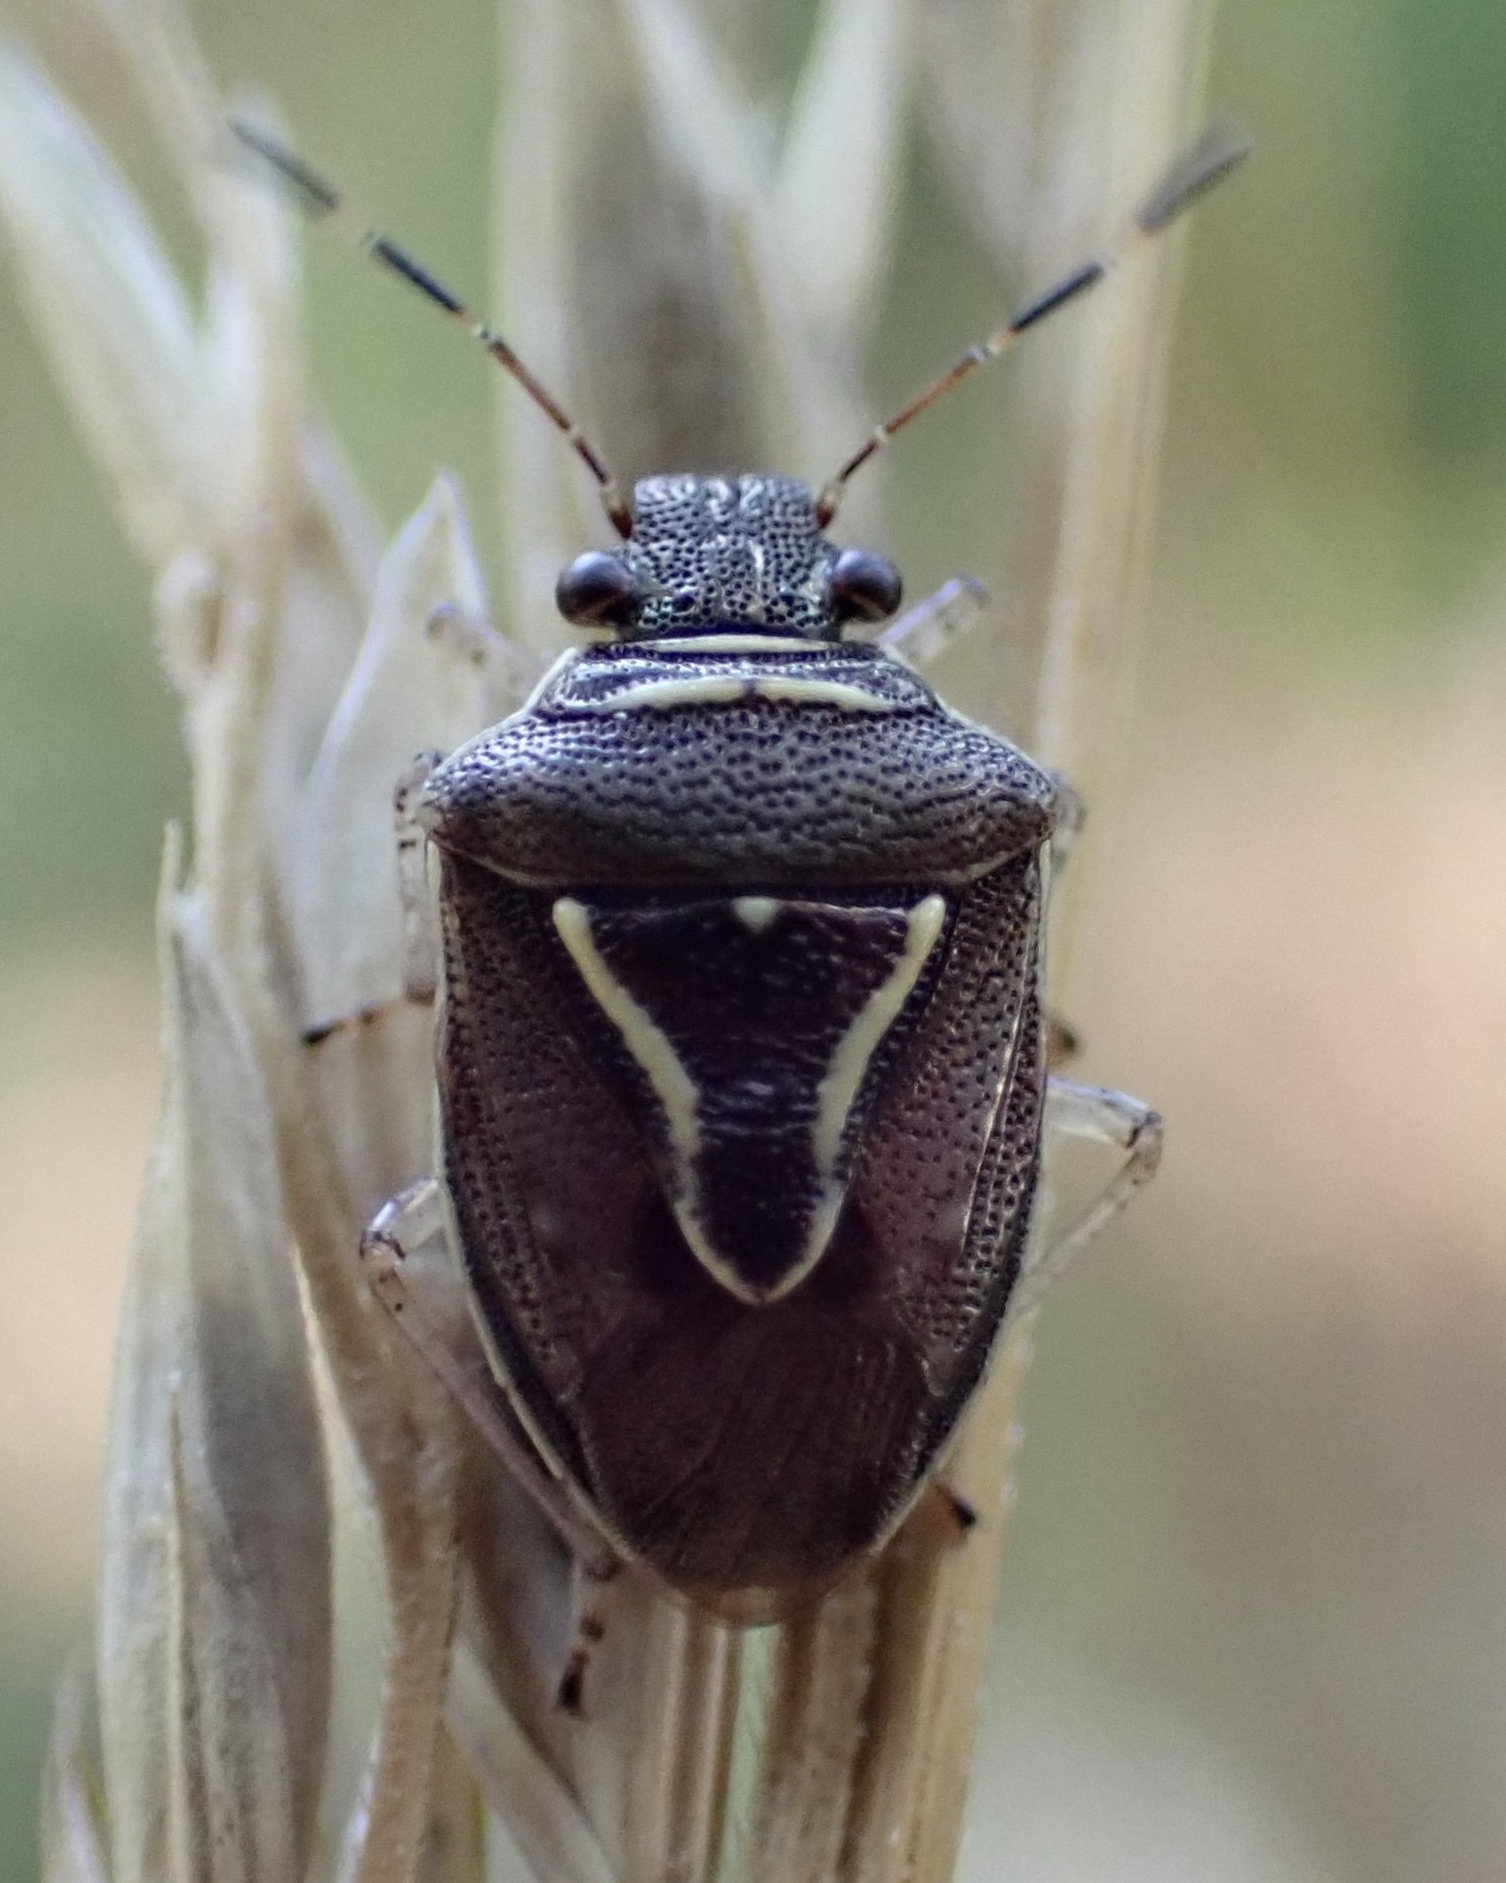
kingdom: Animalia
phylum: Arthropoda
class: Insecta
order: Hemiptera
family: Pentatomidae
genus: Mormidea
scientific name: Mormidea lugens
